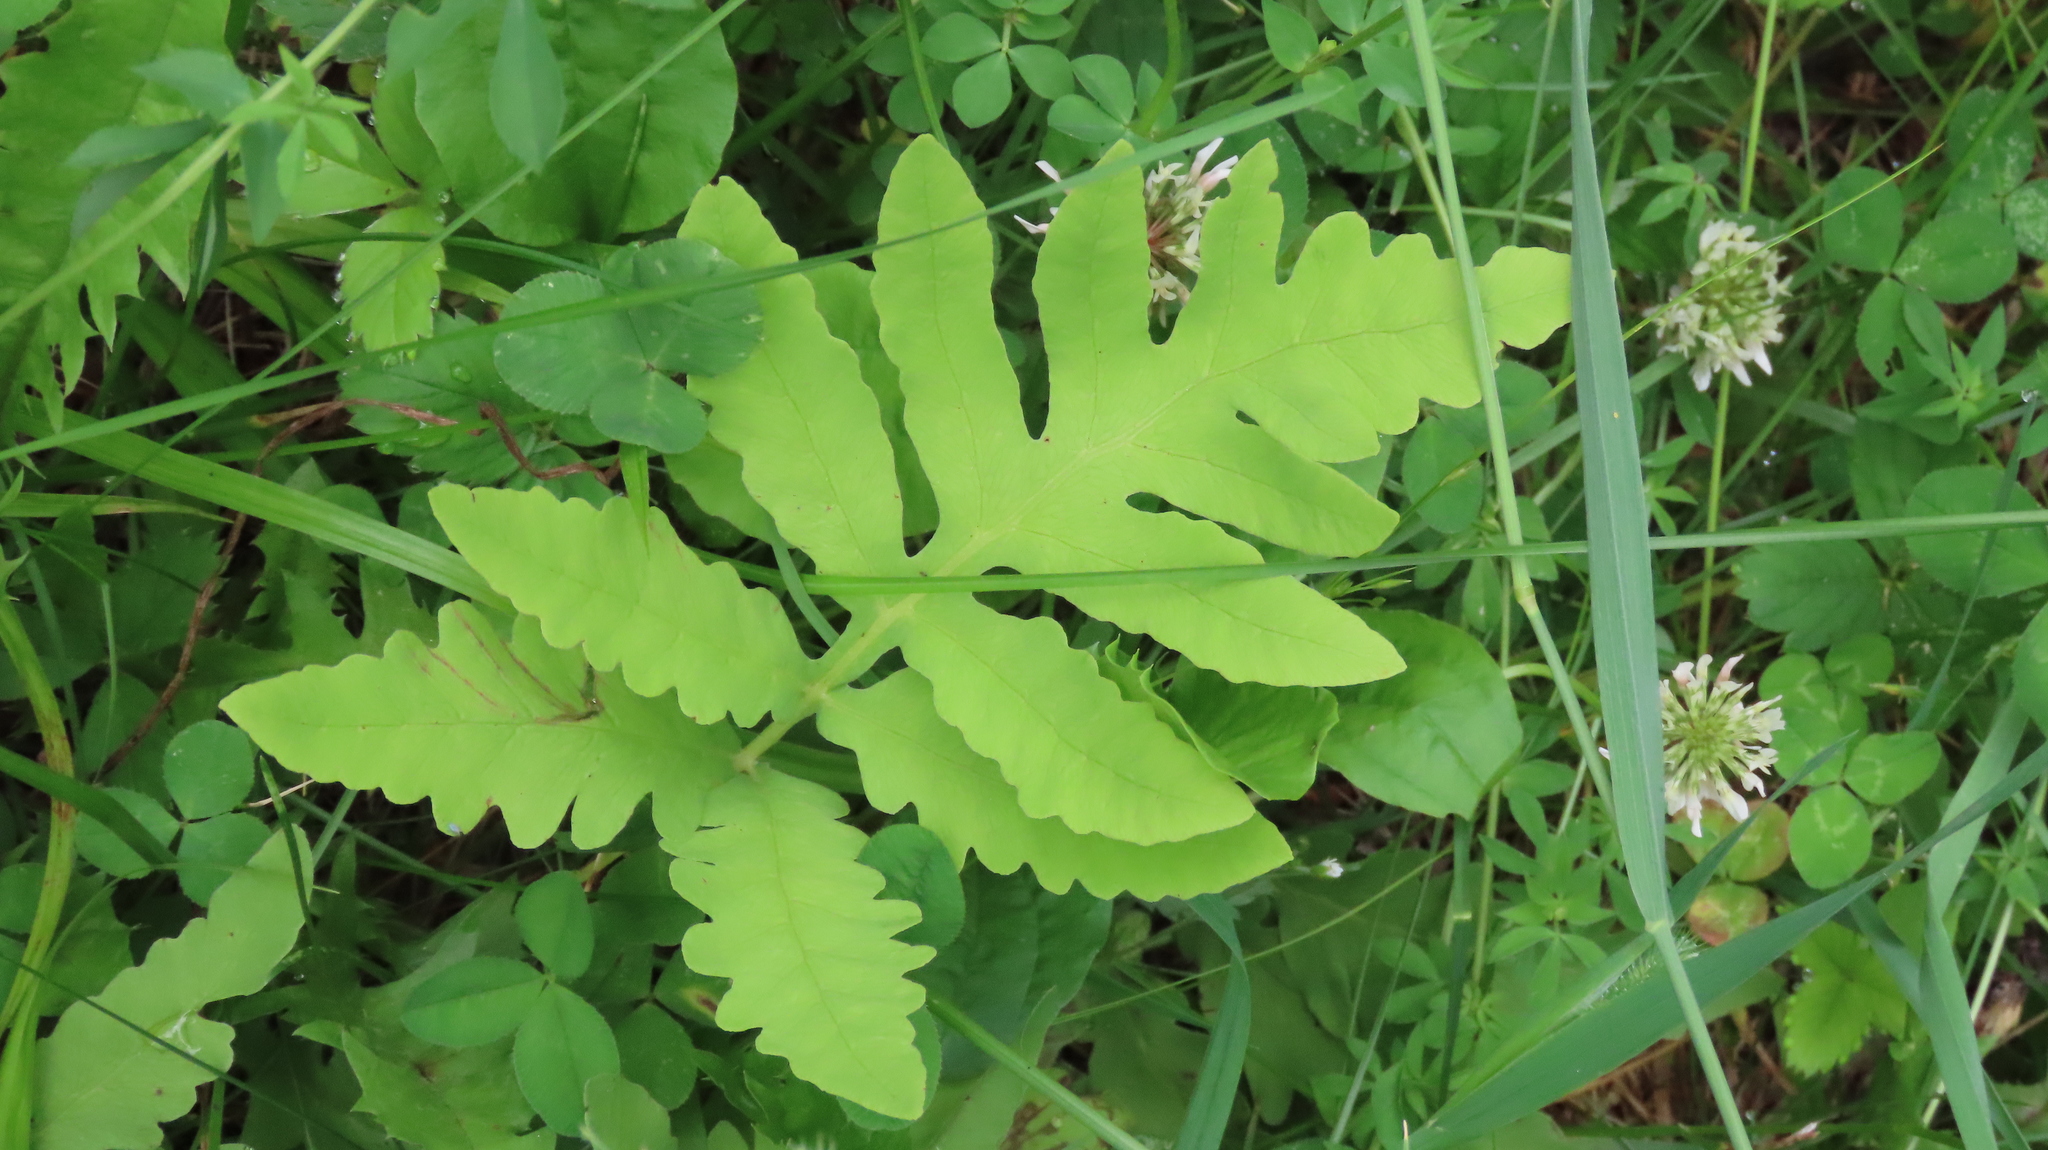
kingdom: Plantae
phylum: Tracheophyta
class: Polypodiopsida
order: Polypodiales
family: Onocleaceae
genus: Onoclea
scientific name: Onoclea sensibilis
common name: Sensitive fern
